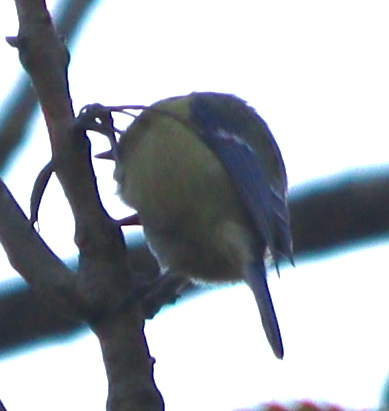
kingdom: Animalia
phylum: Chordata
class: Aves
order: Passeriformes
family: Paridae
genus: Cyanistes
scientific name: Cyanistes caeruleus
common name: Eurasian blue tit
